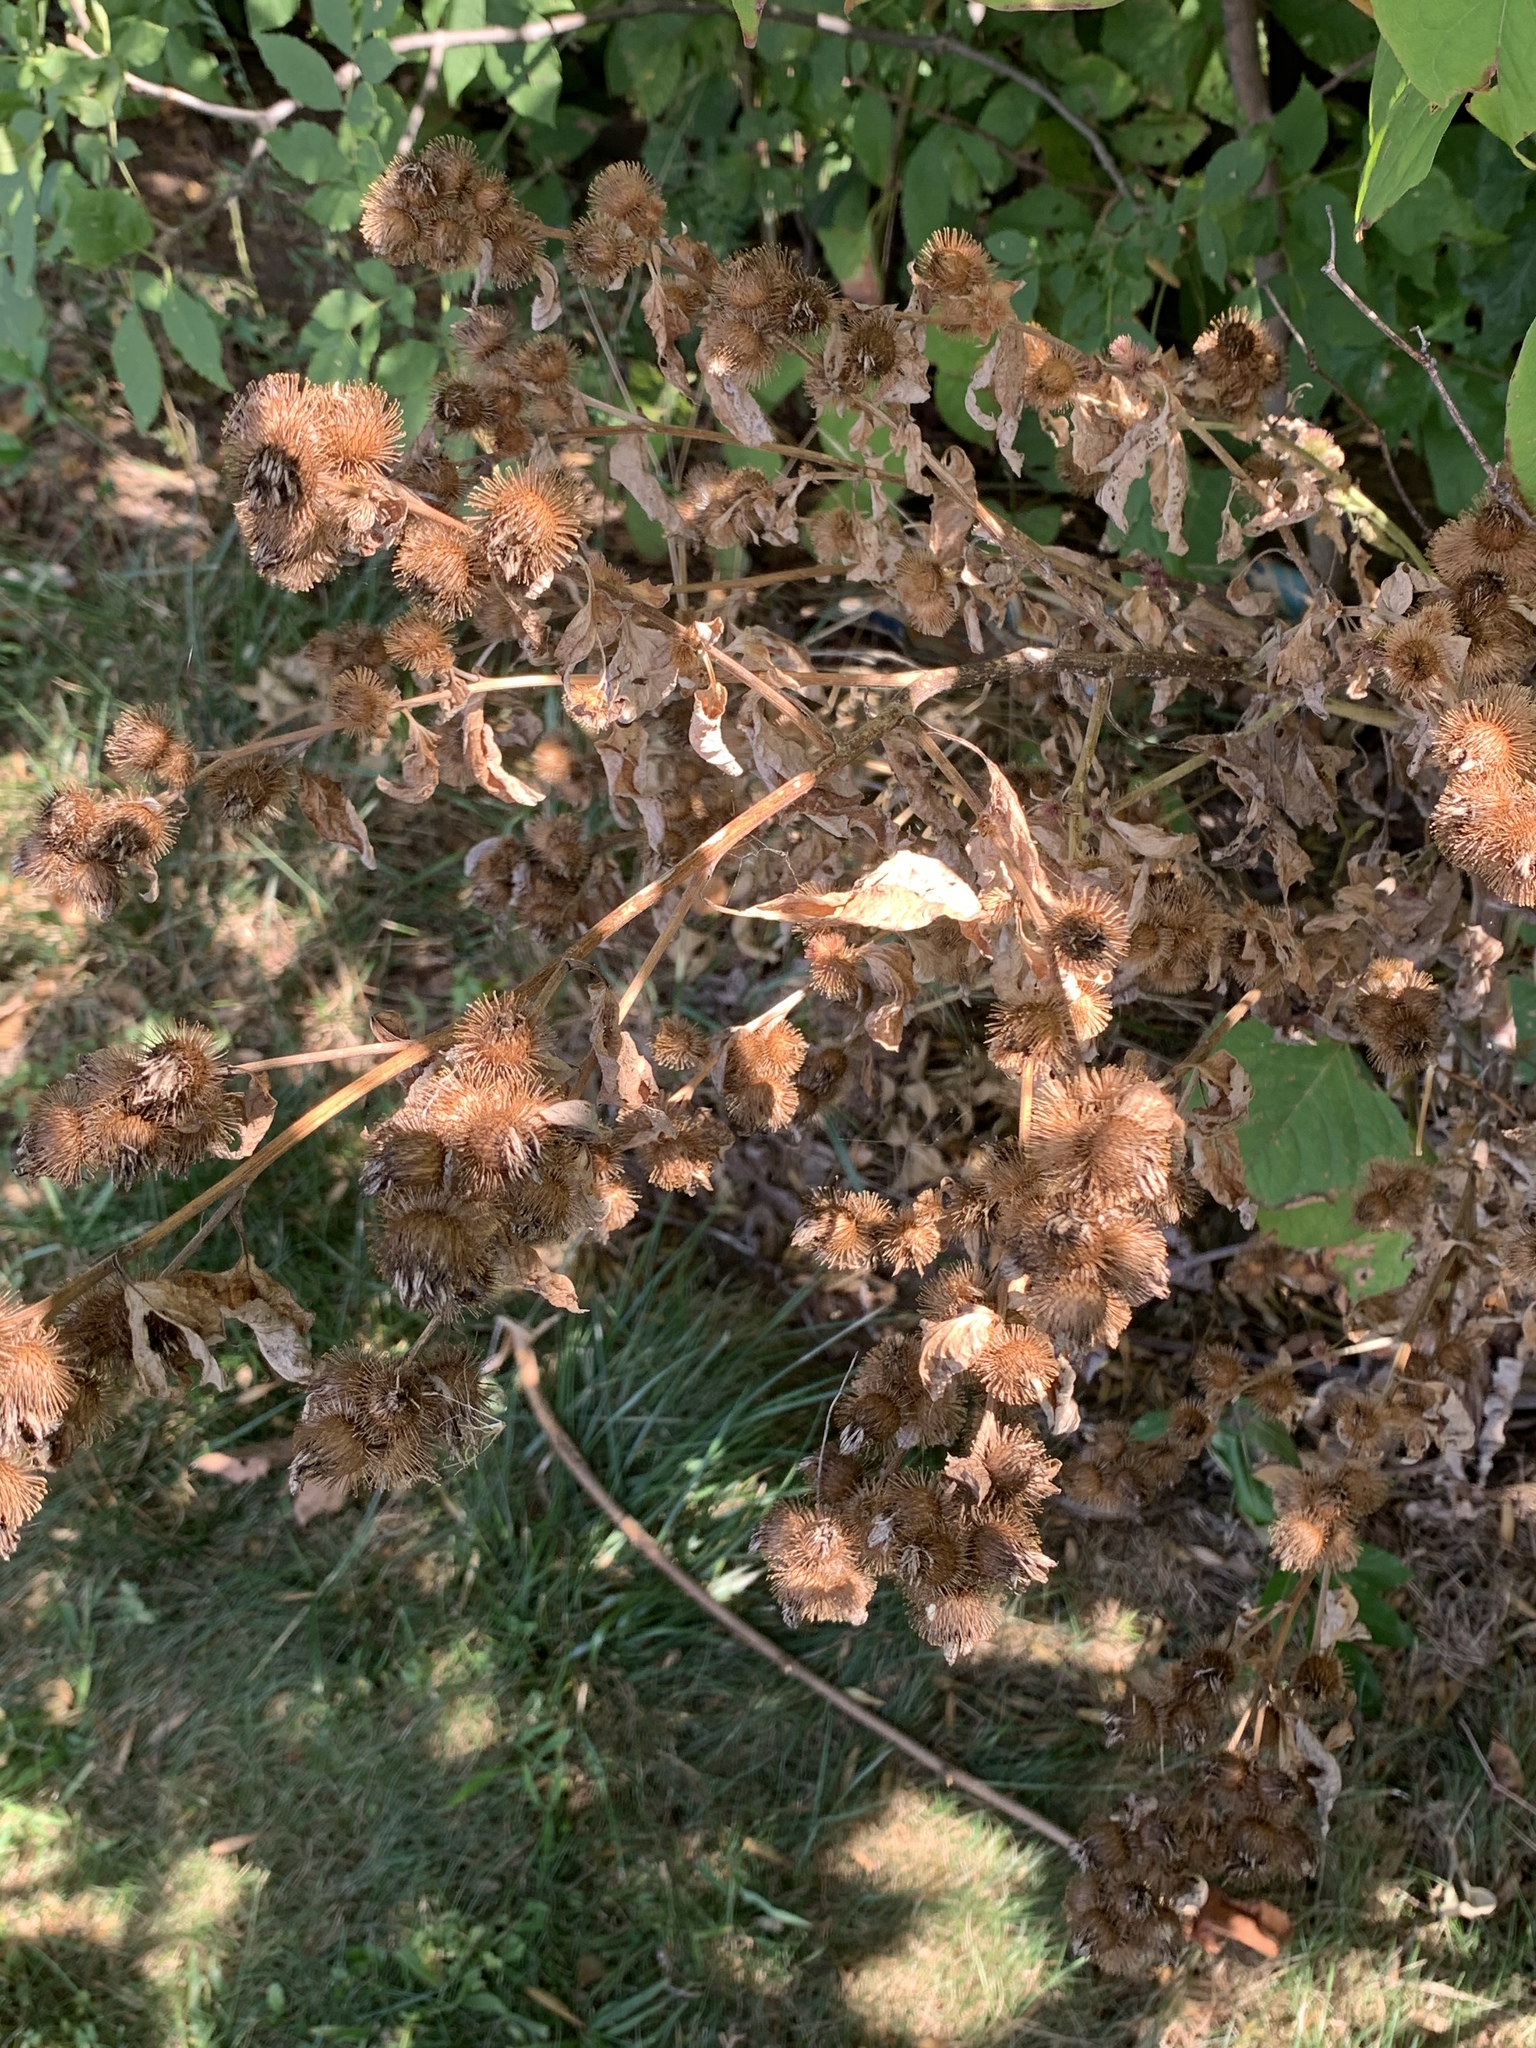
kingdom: Plantae
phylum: Tracheophyta
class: Magnoliopsida
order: Asterales
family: Asteraceae
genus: Arctium
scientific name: Arctium minus
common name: Lesser burdock
